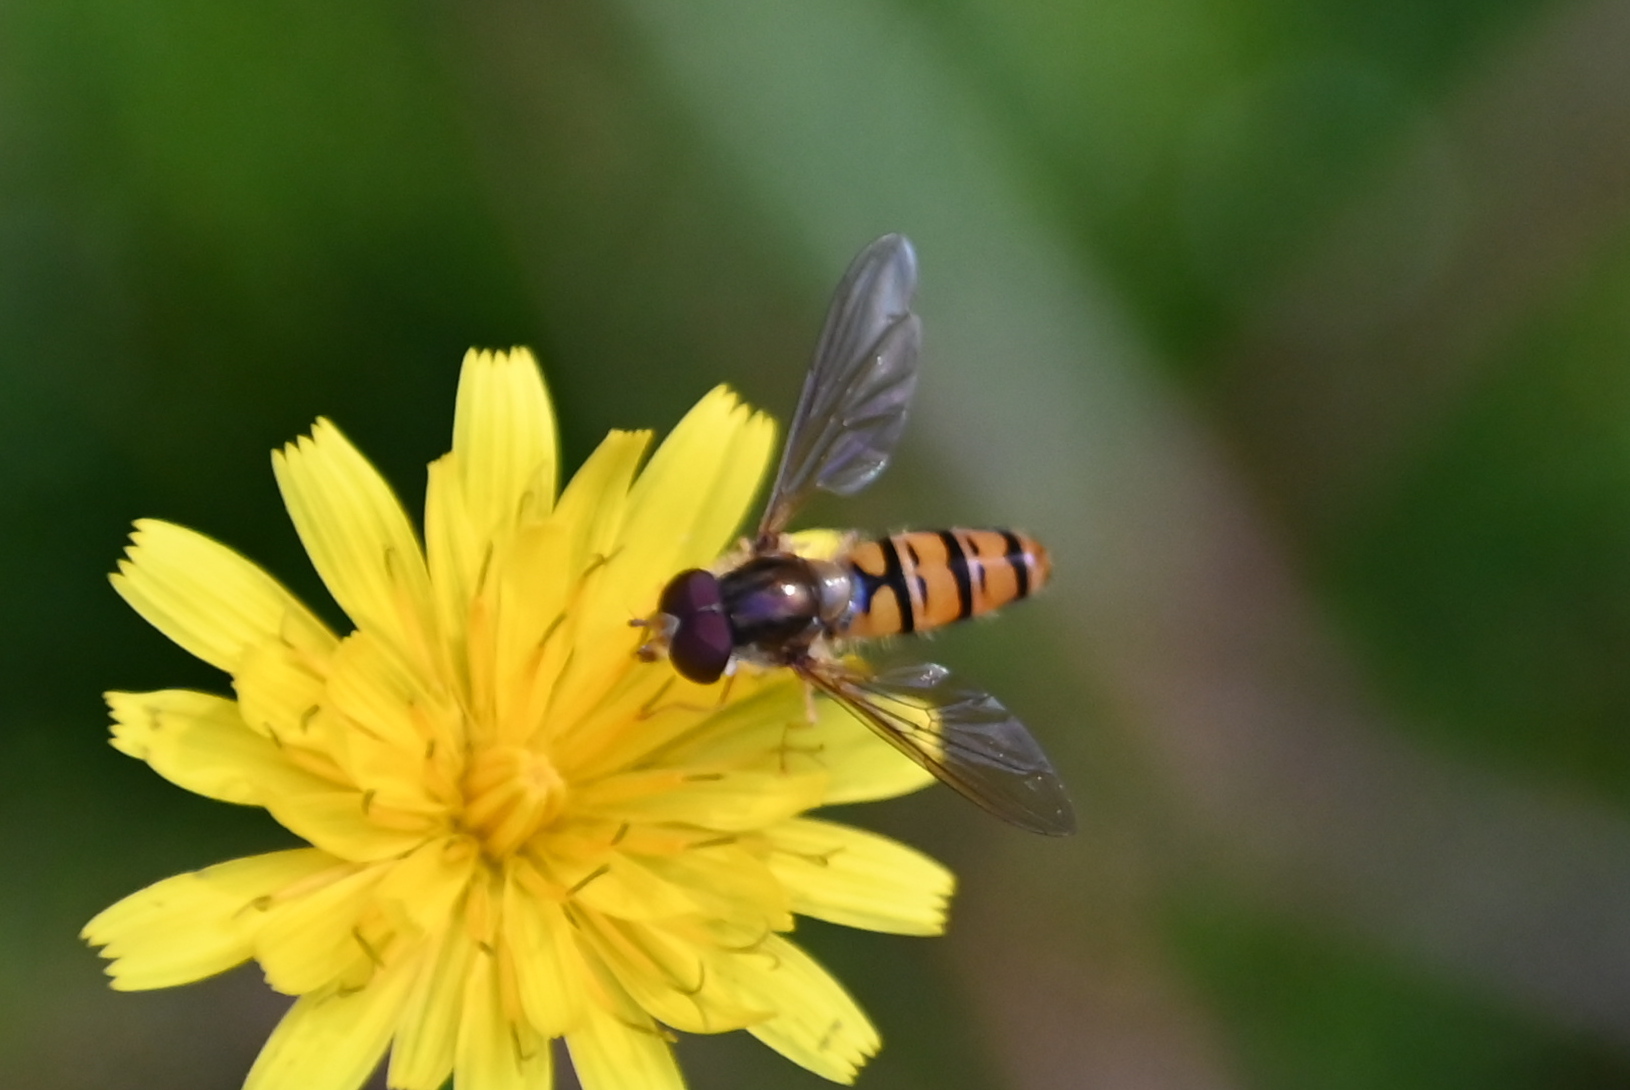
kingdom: Animalia
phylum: Arthropoda
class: Insecta
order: Diptera
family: Syrphidae
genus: Episyrphus
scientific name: Episyrphus balteatus
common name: Marmalade hoverfly
